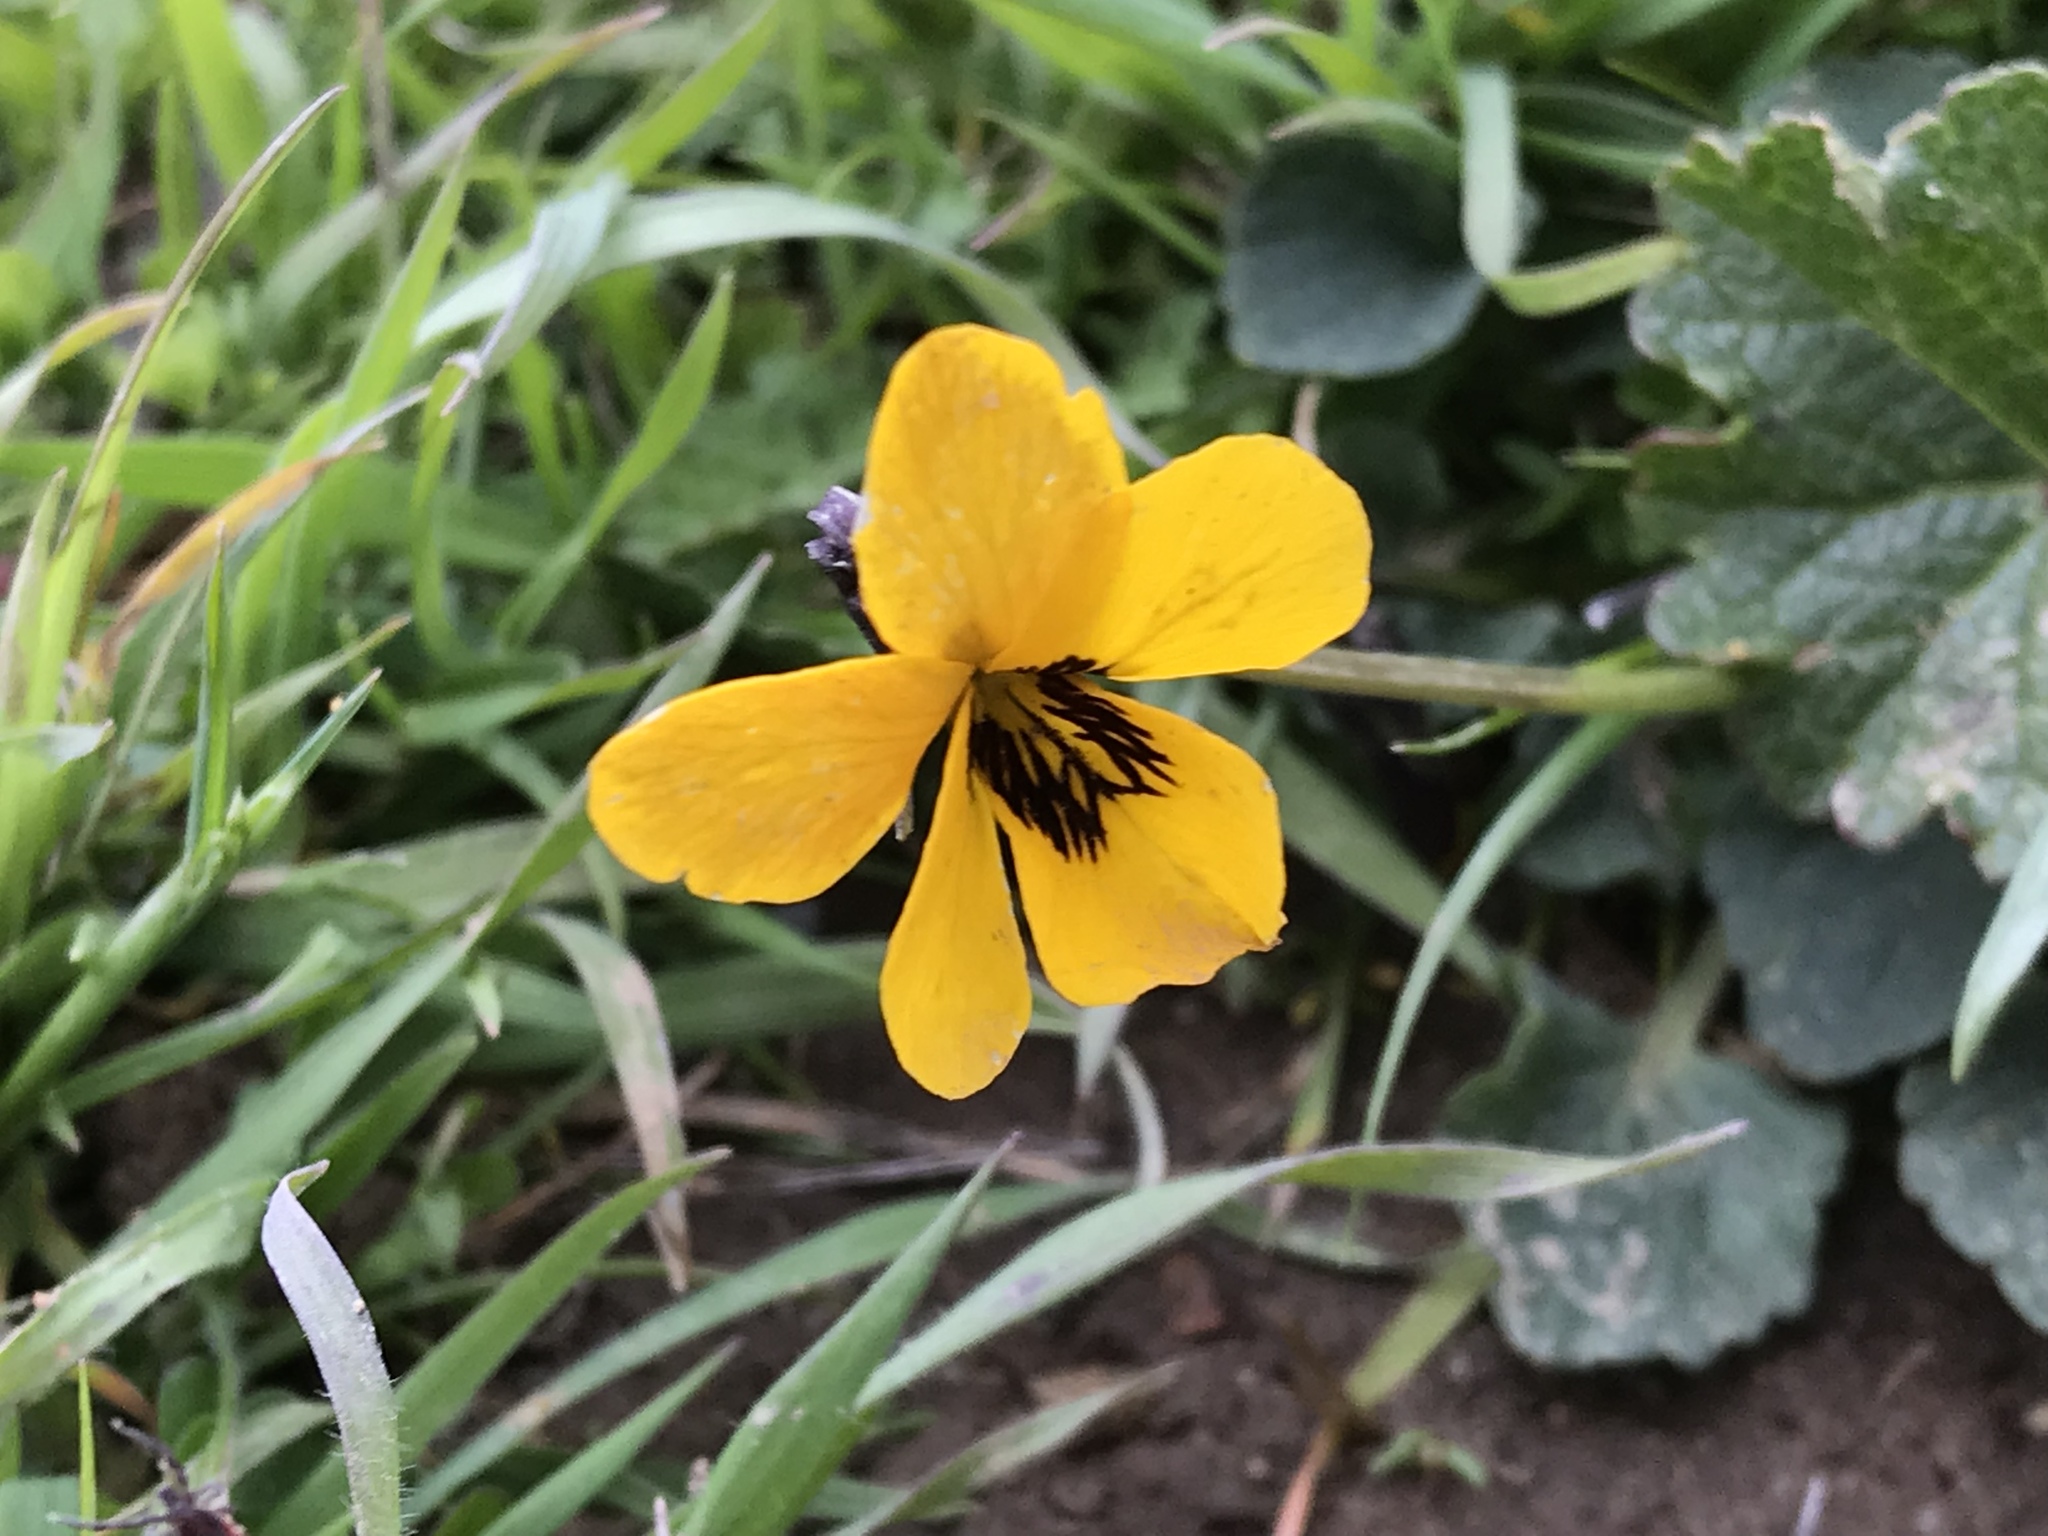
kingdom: Plantae
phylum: Tracheophyta
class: Magnoliopsida
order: Malpighiales
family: Violaceae
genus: Viola
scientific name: Viola pedunculata
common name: California golden violet
